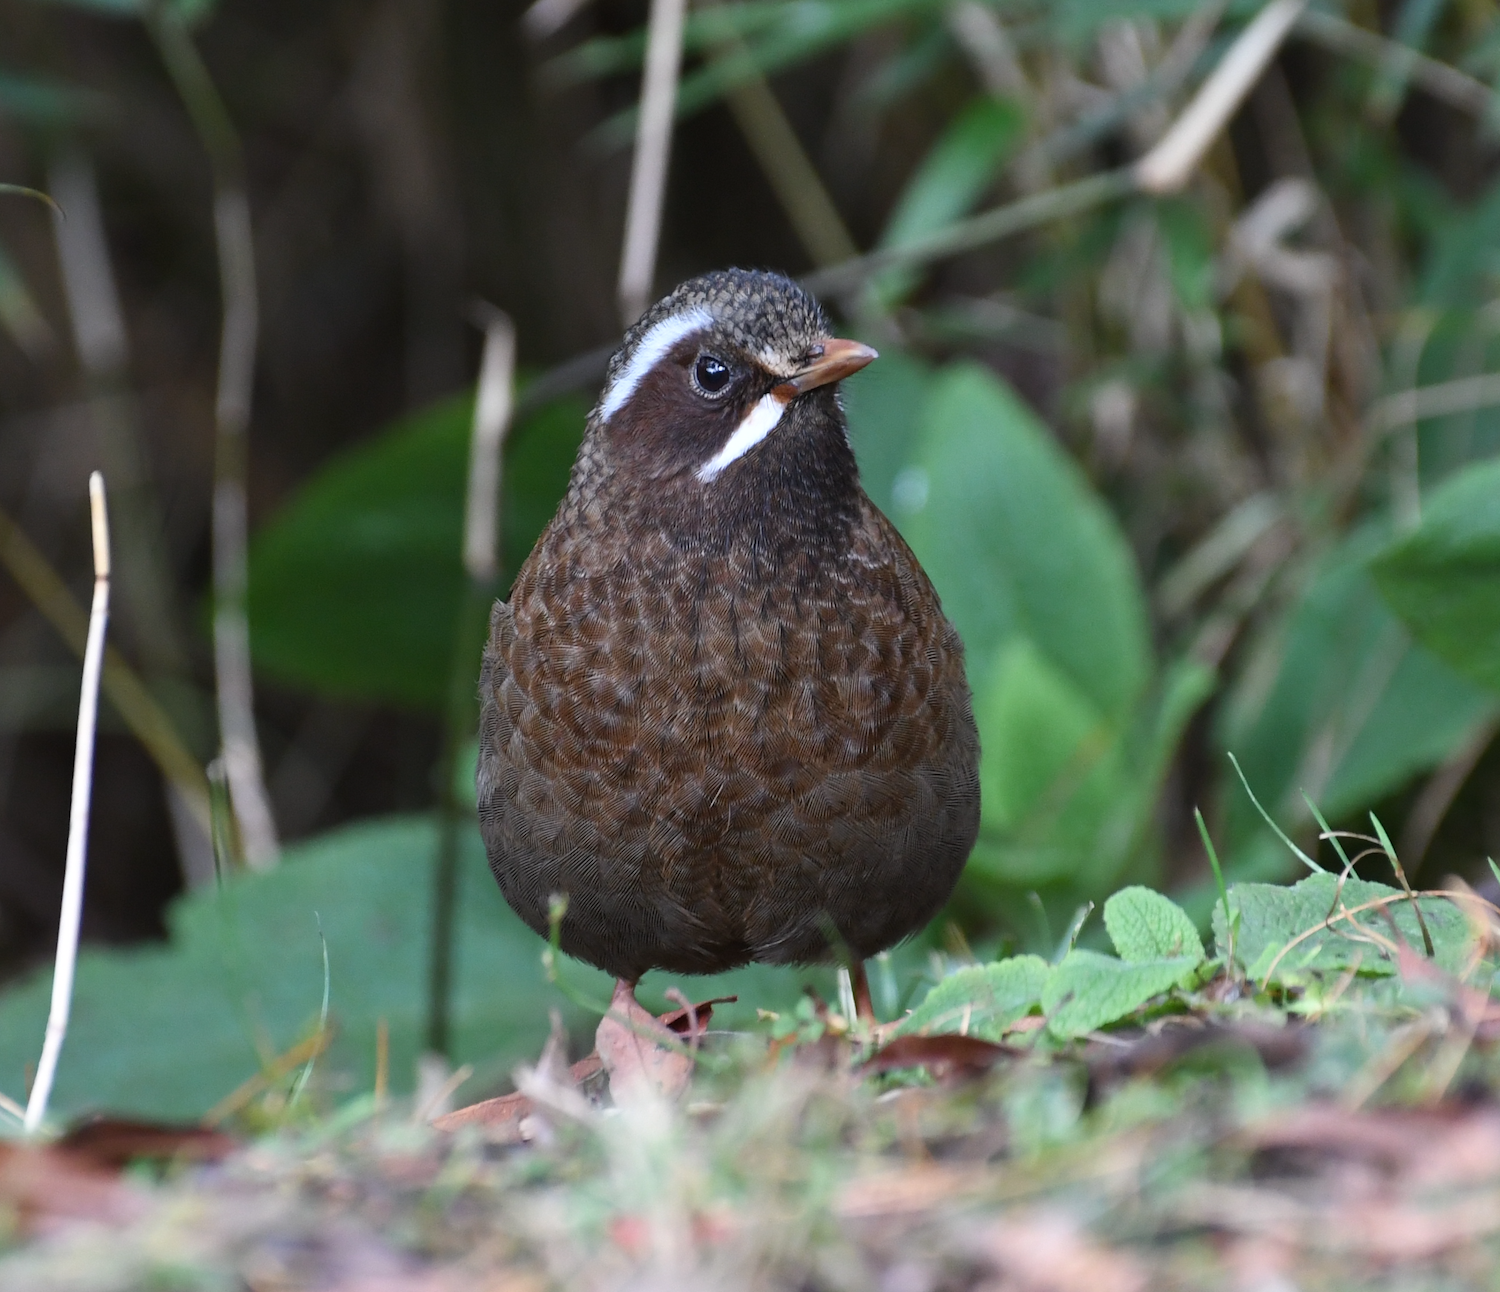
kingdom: Animalia
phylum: Chordata
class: Aves
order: Passeriformes
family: Leiothrichidae
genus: Trochalopteron
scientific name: Trochalopteron morrisonianum
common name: White-whiskered laughingthrush
